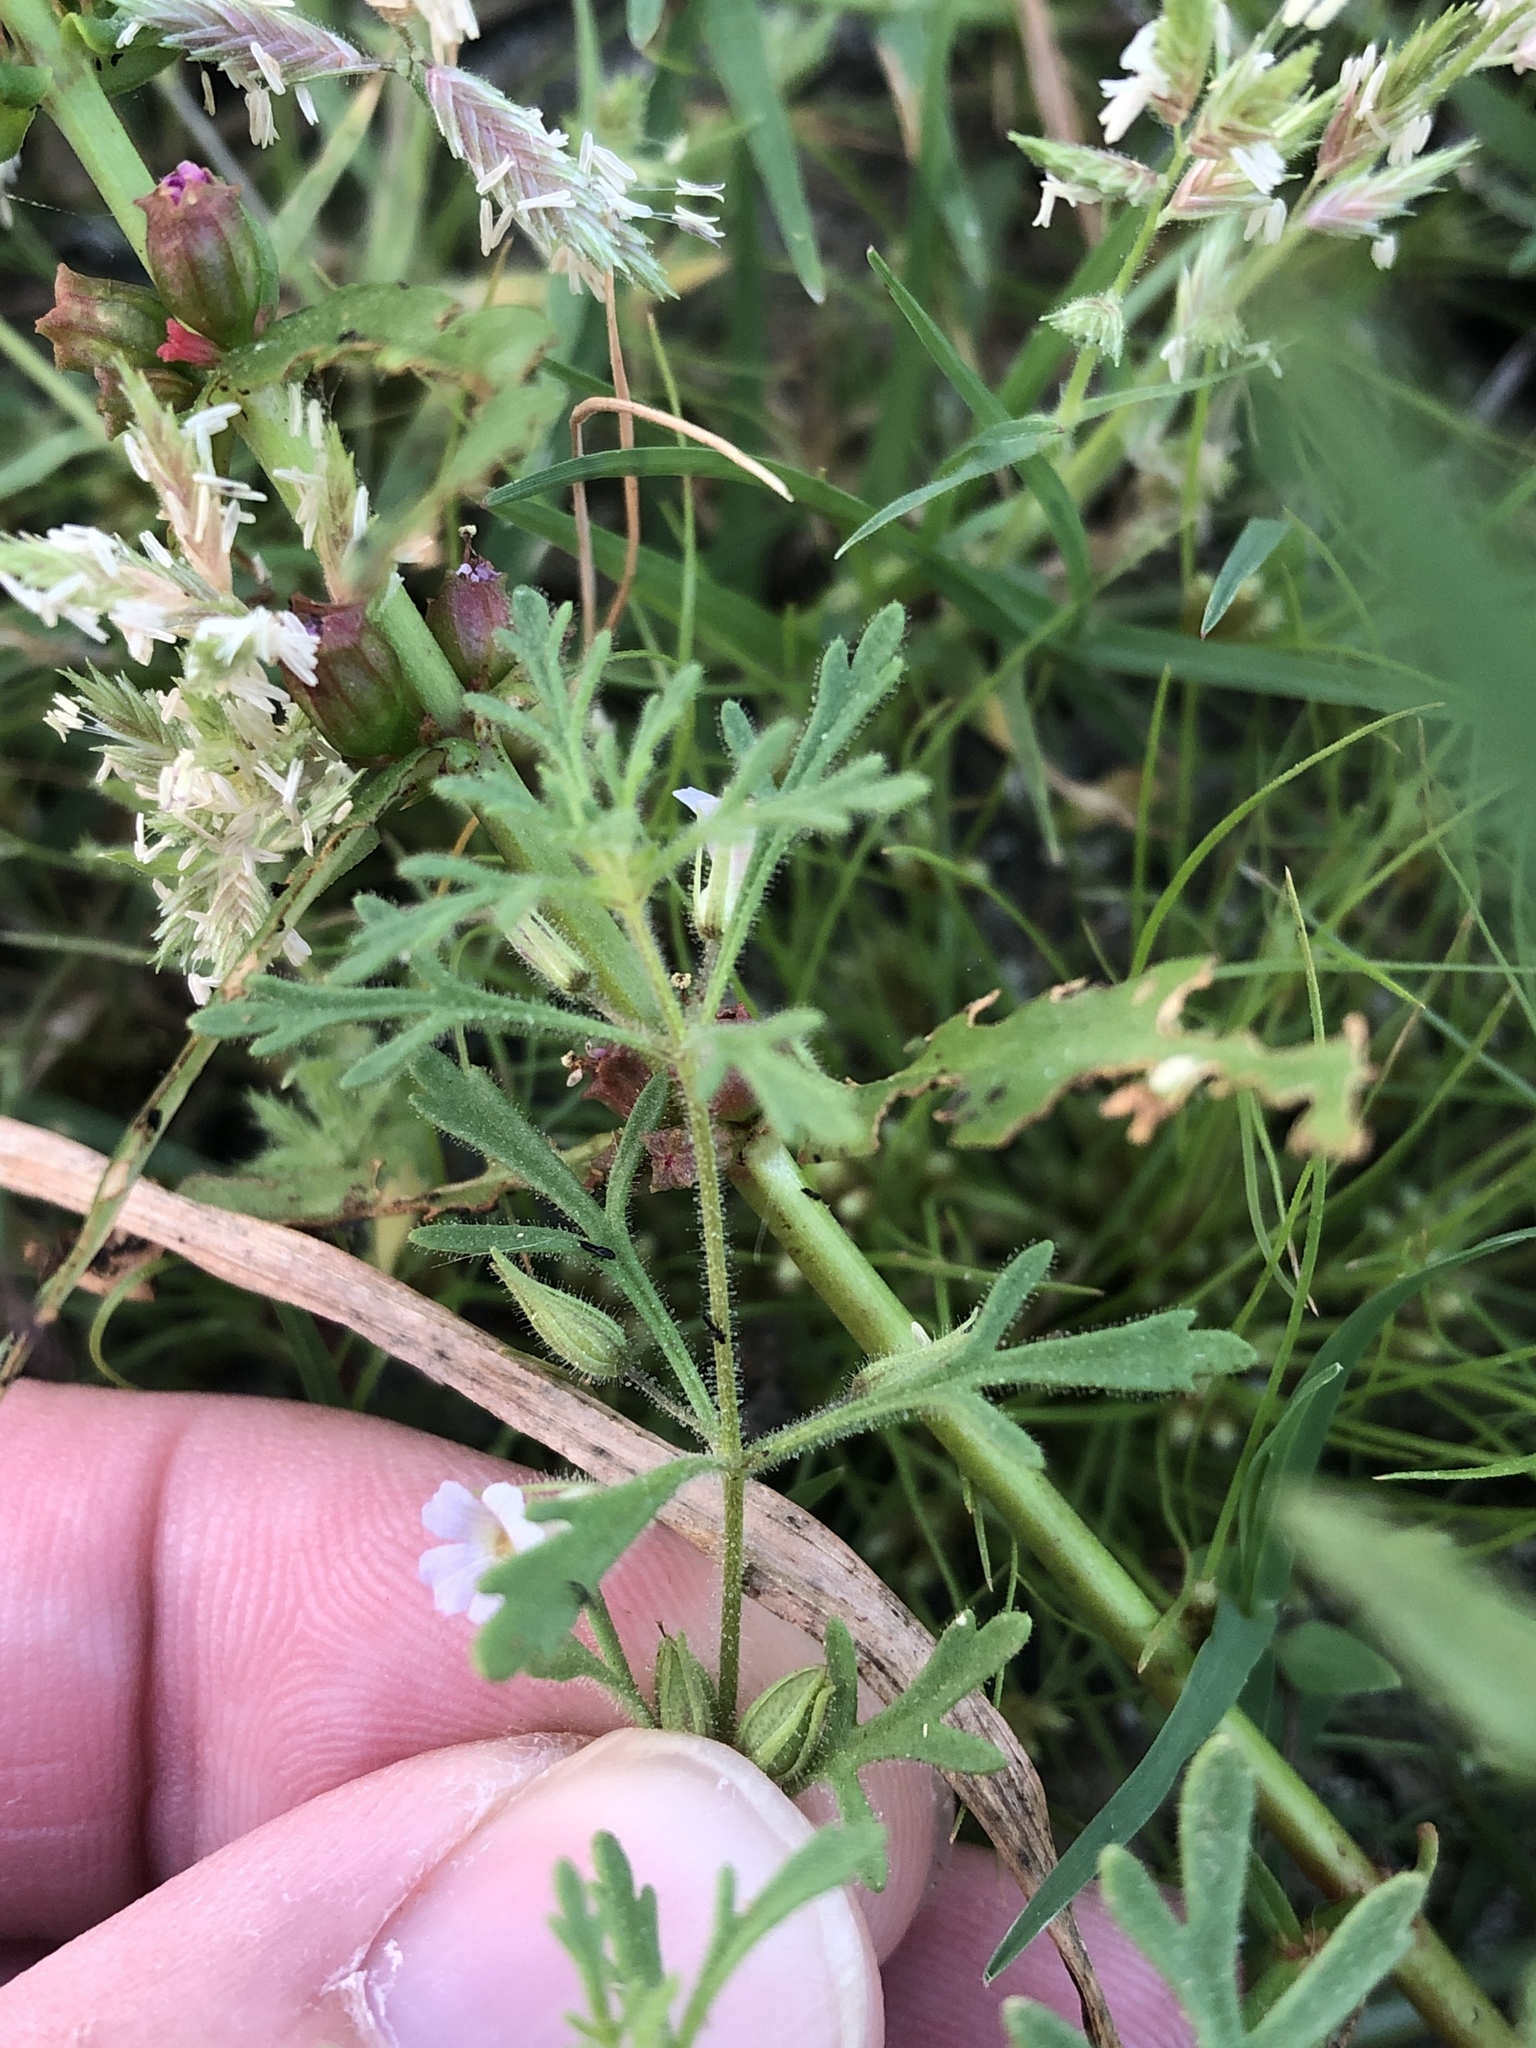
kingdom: Plantae
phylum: Tracheophyta
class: Magnoliopsida
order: Lamiales
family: Plantaginaceae
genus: Leucospora
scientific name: Leucospora multifida
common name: Narrow-leaf paleseed
